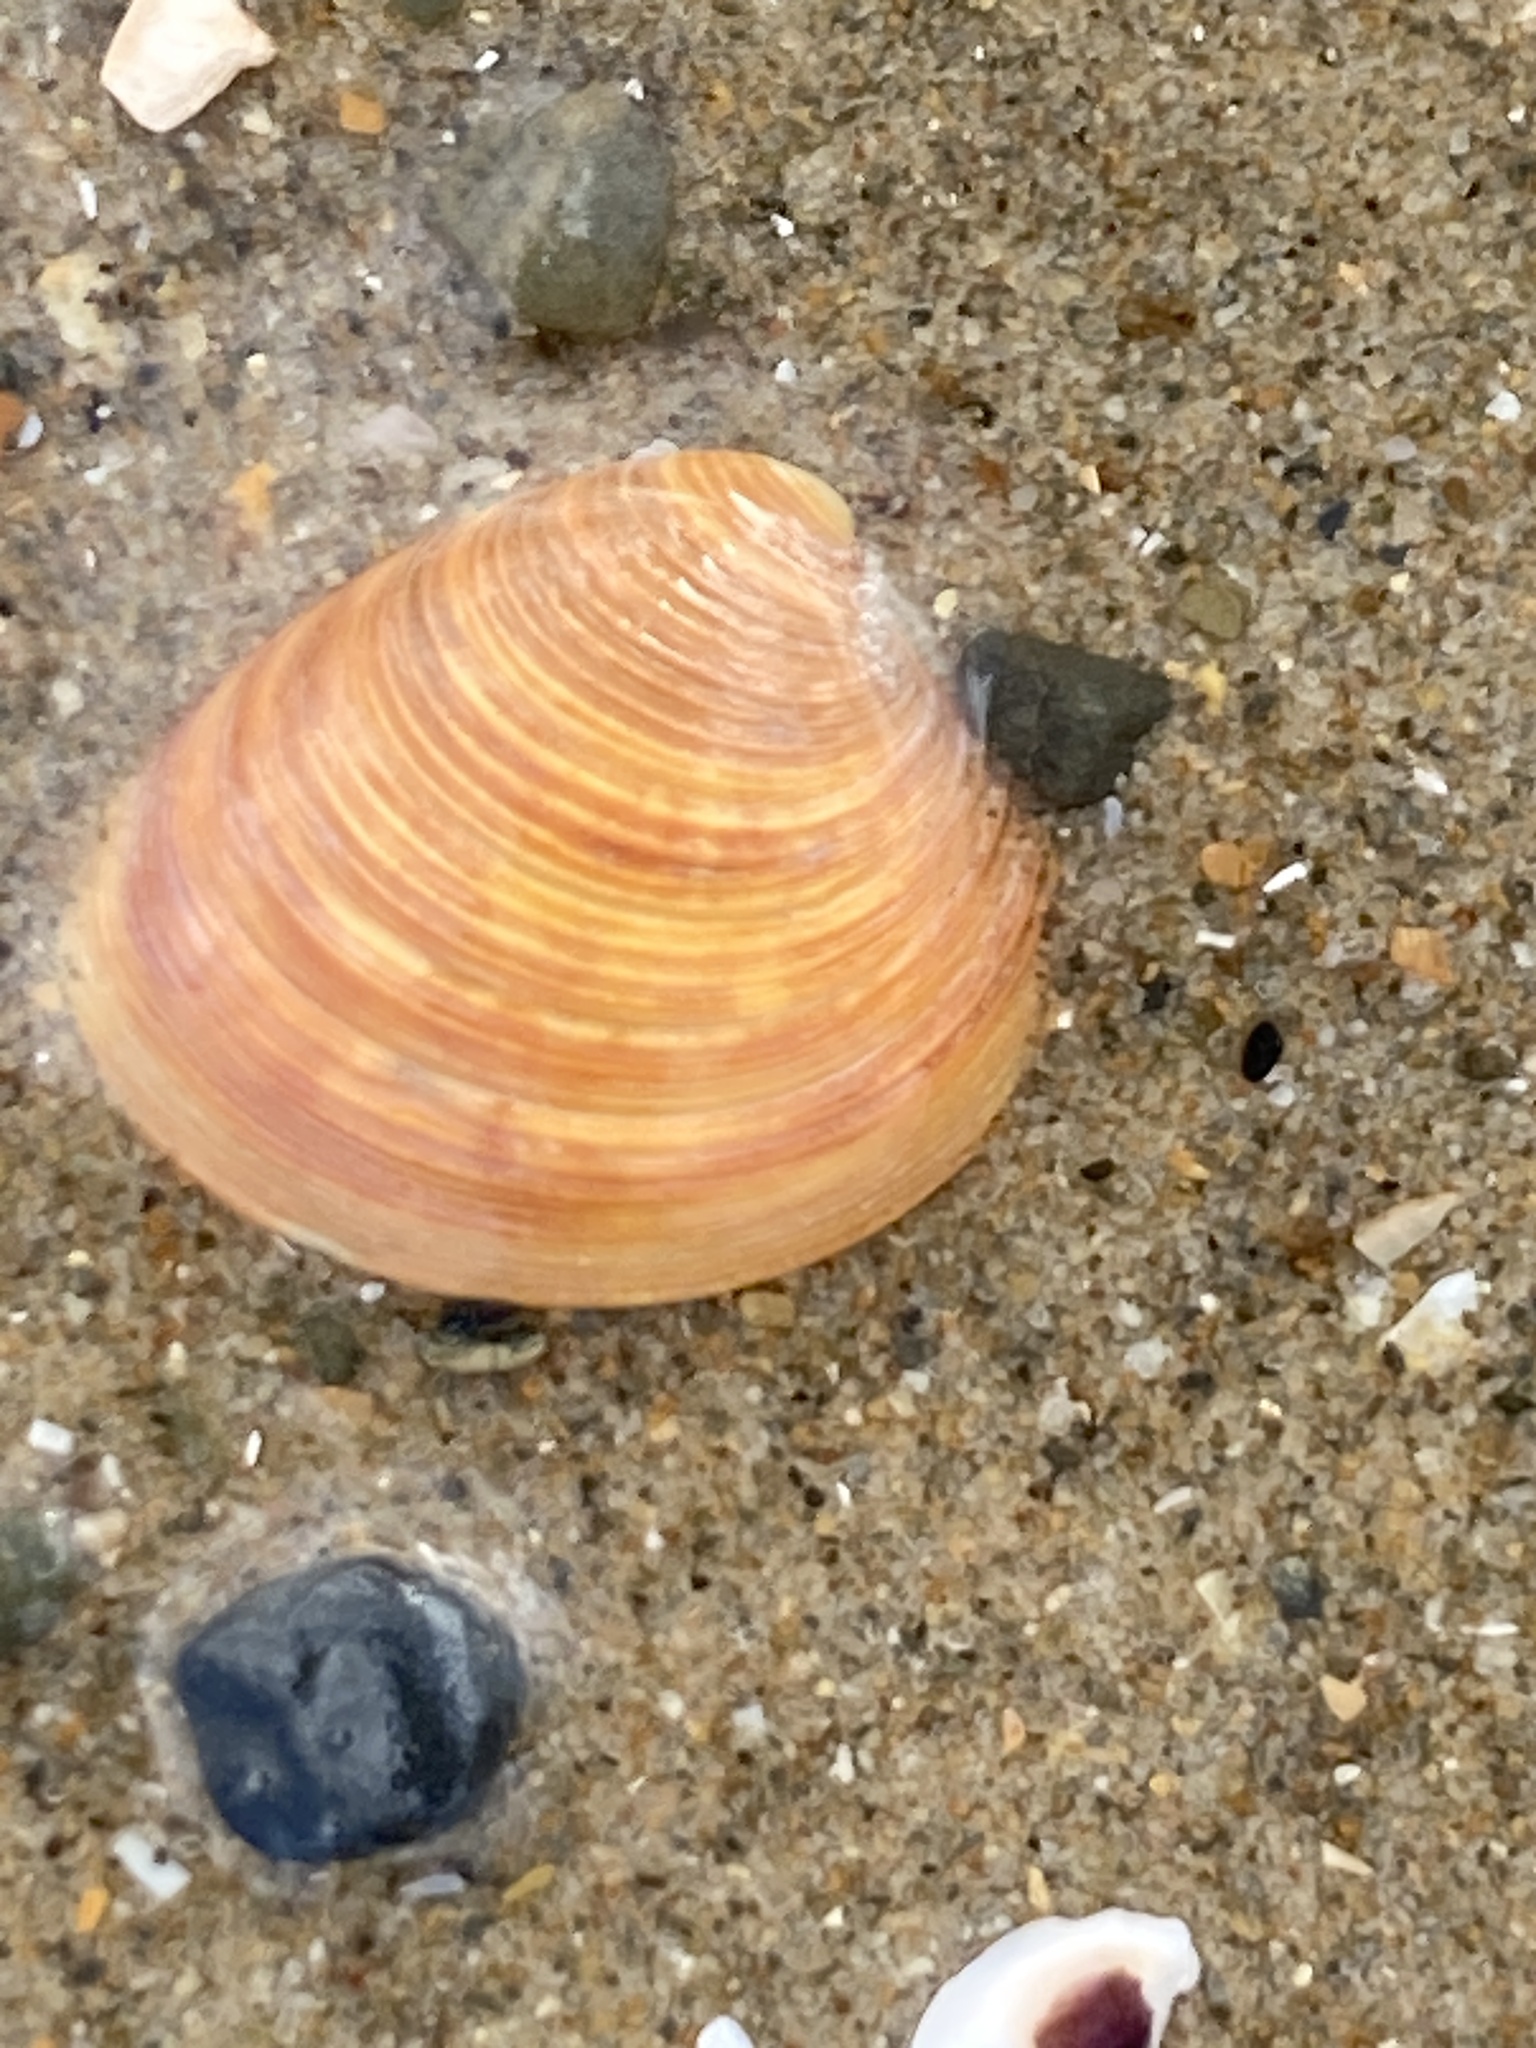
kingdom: Animalia
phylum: Mollusca
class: Bivalvia
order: Venerida
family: Veneridae
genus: Chamelea
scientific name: Chamelea striatula
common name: Striped venus
